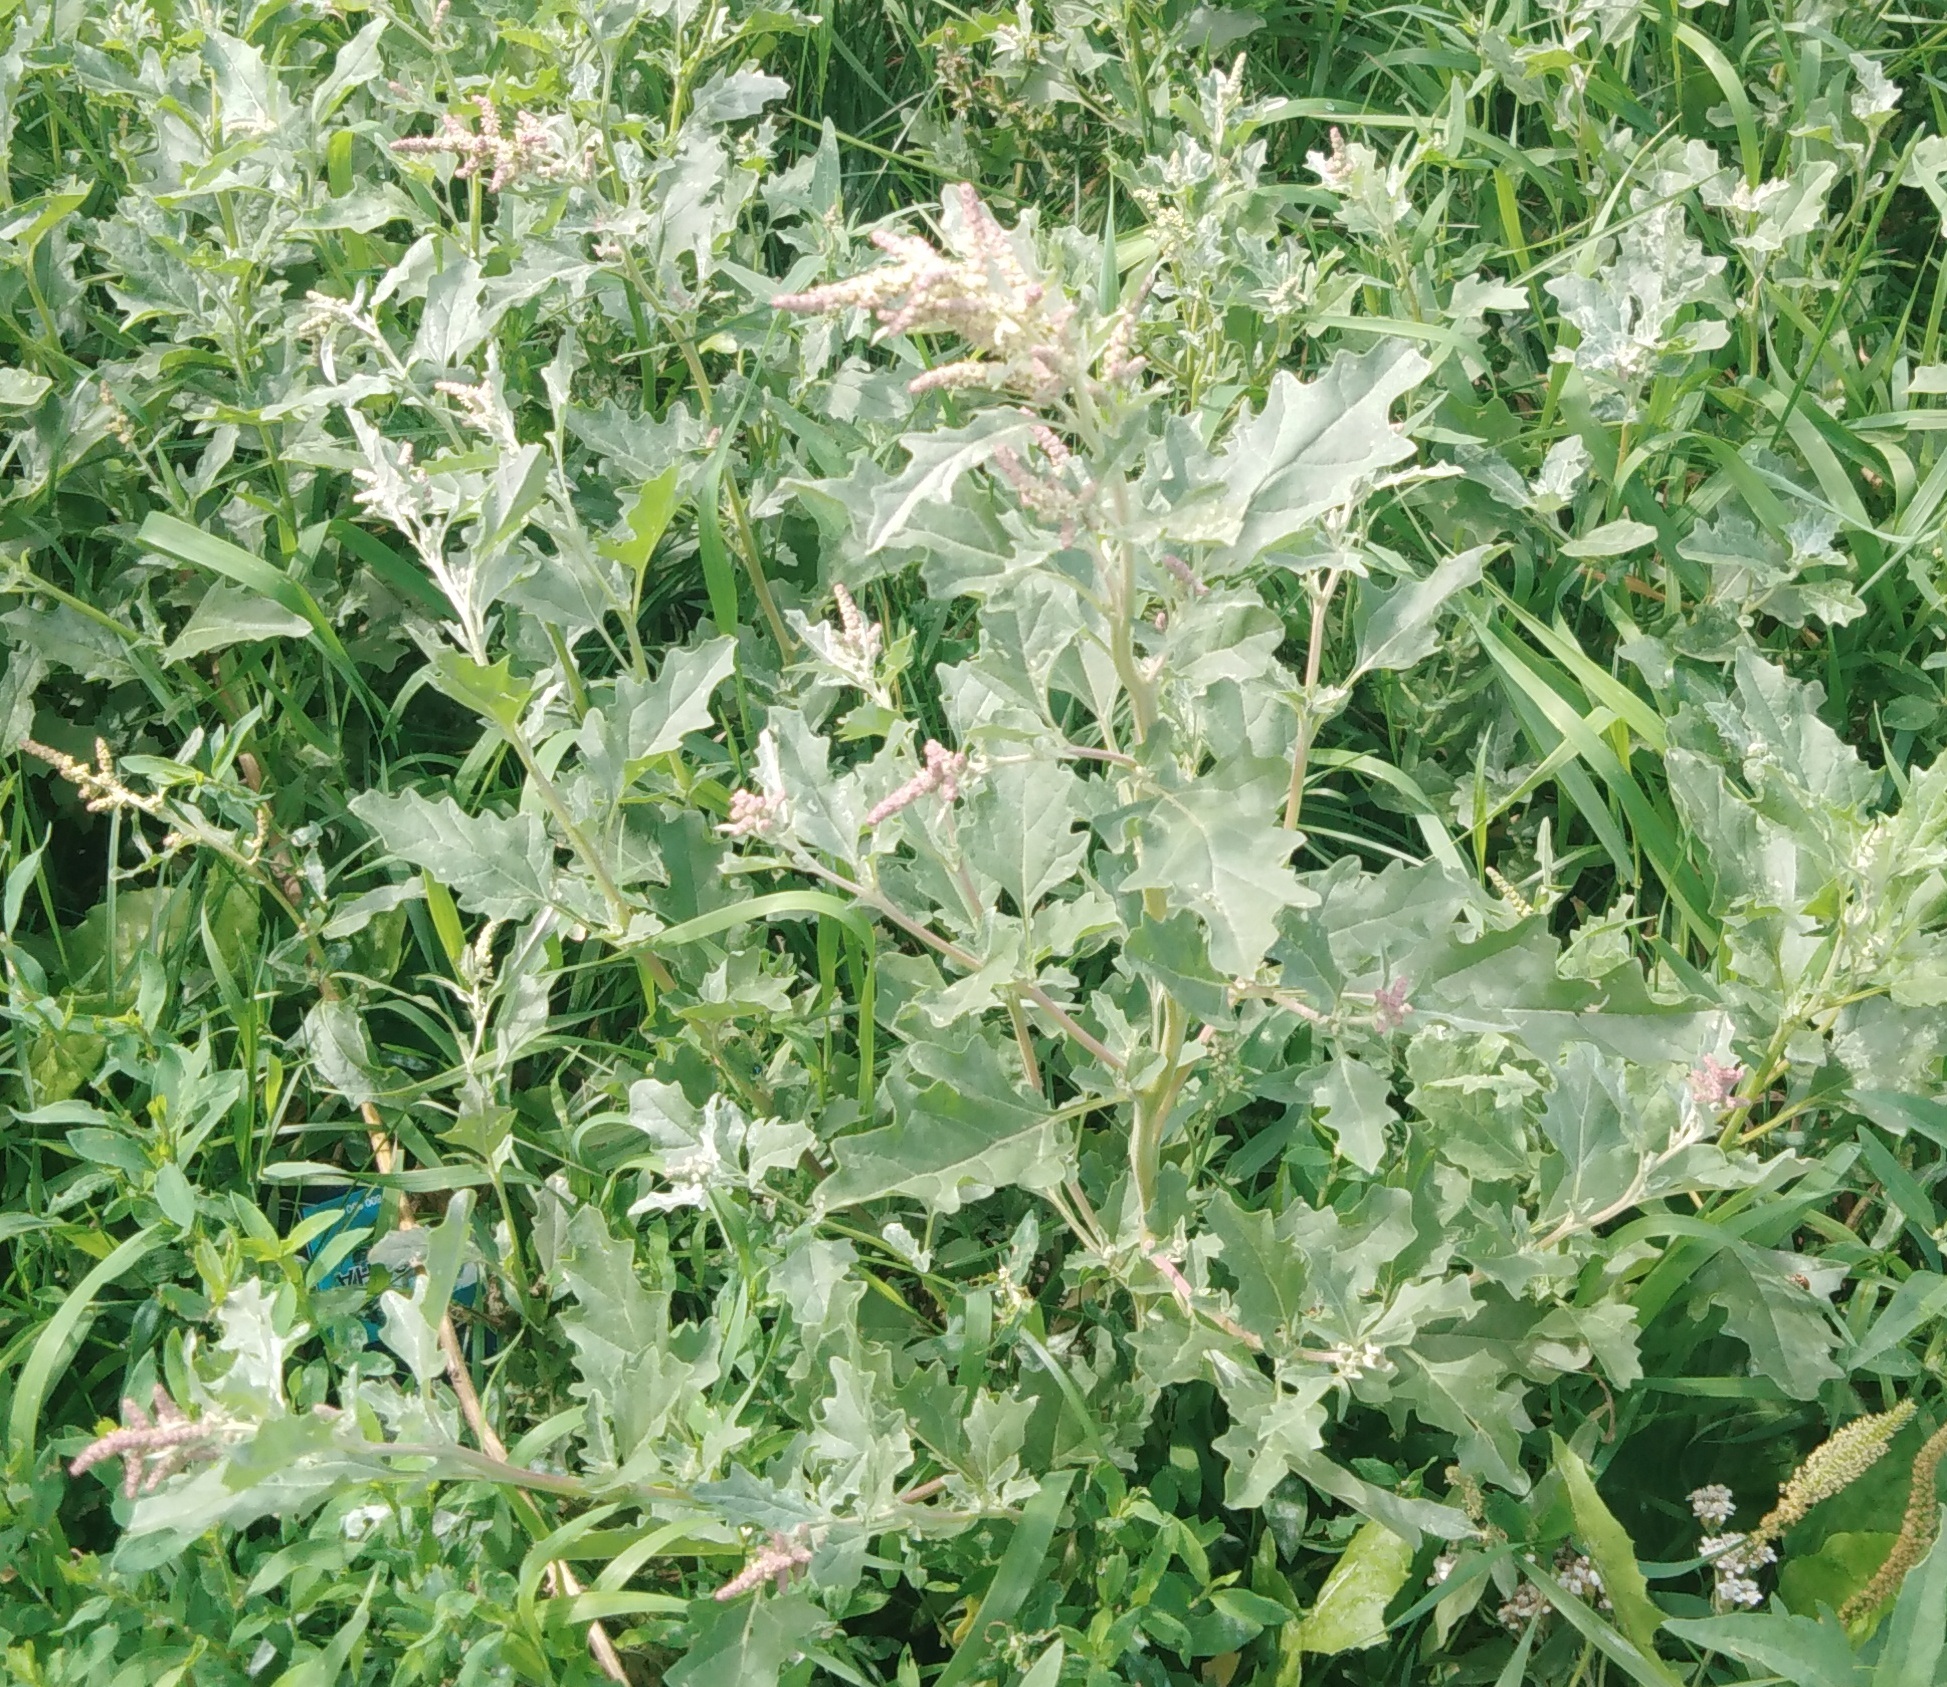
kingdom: Plantae
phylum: Tracheophyta
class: Magnoliopsida
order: Caryophyllales
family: Amaranthaceae
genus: Atriplex
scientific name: Atriplex tatarica
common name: Tatarian orache
